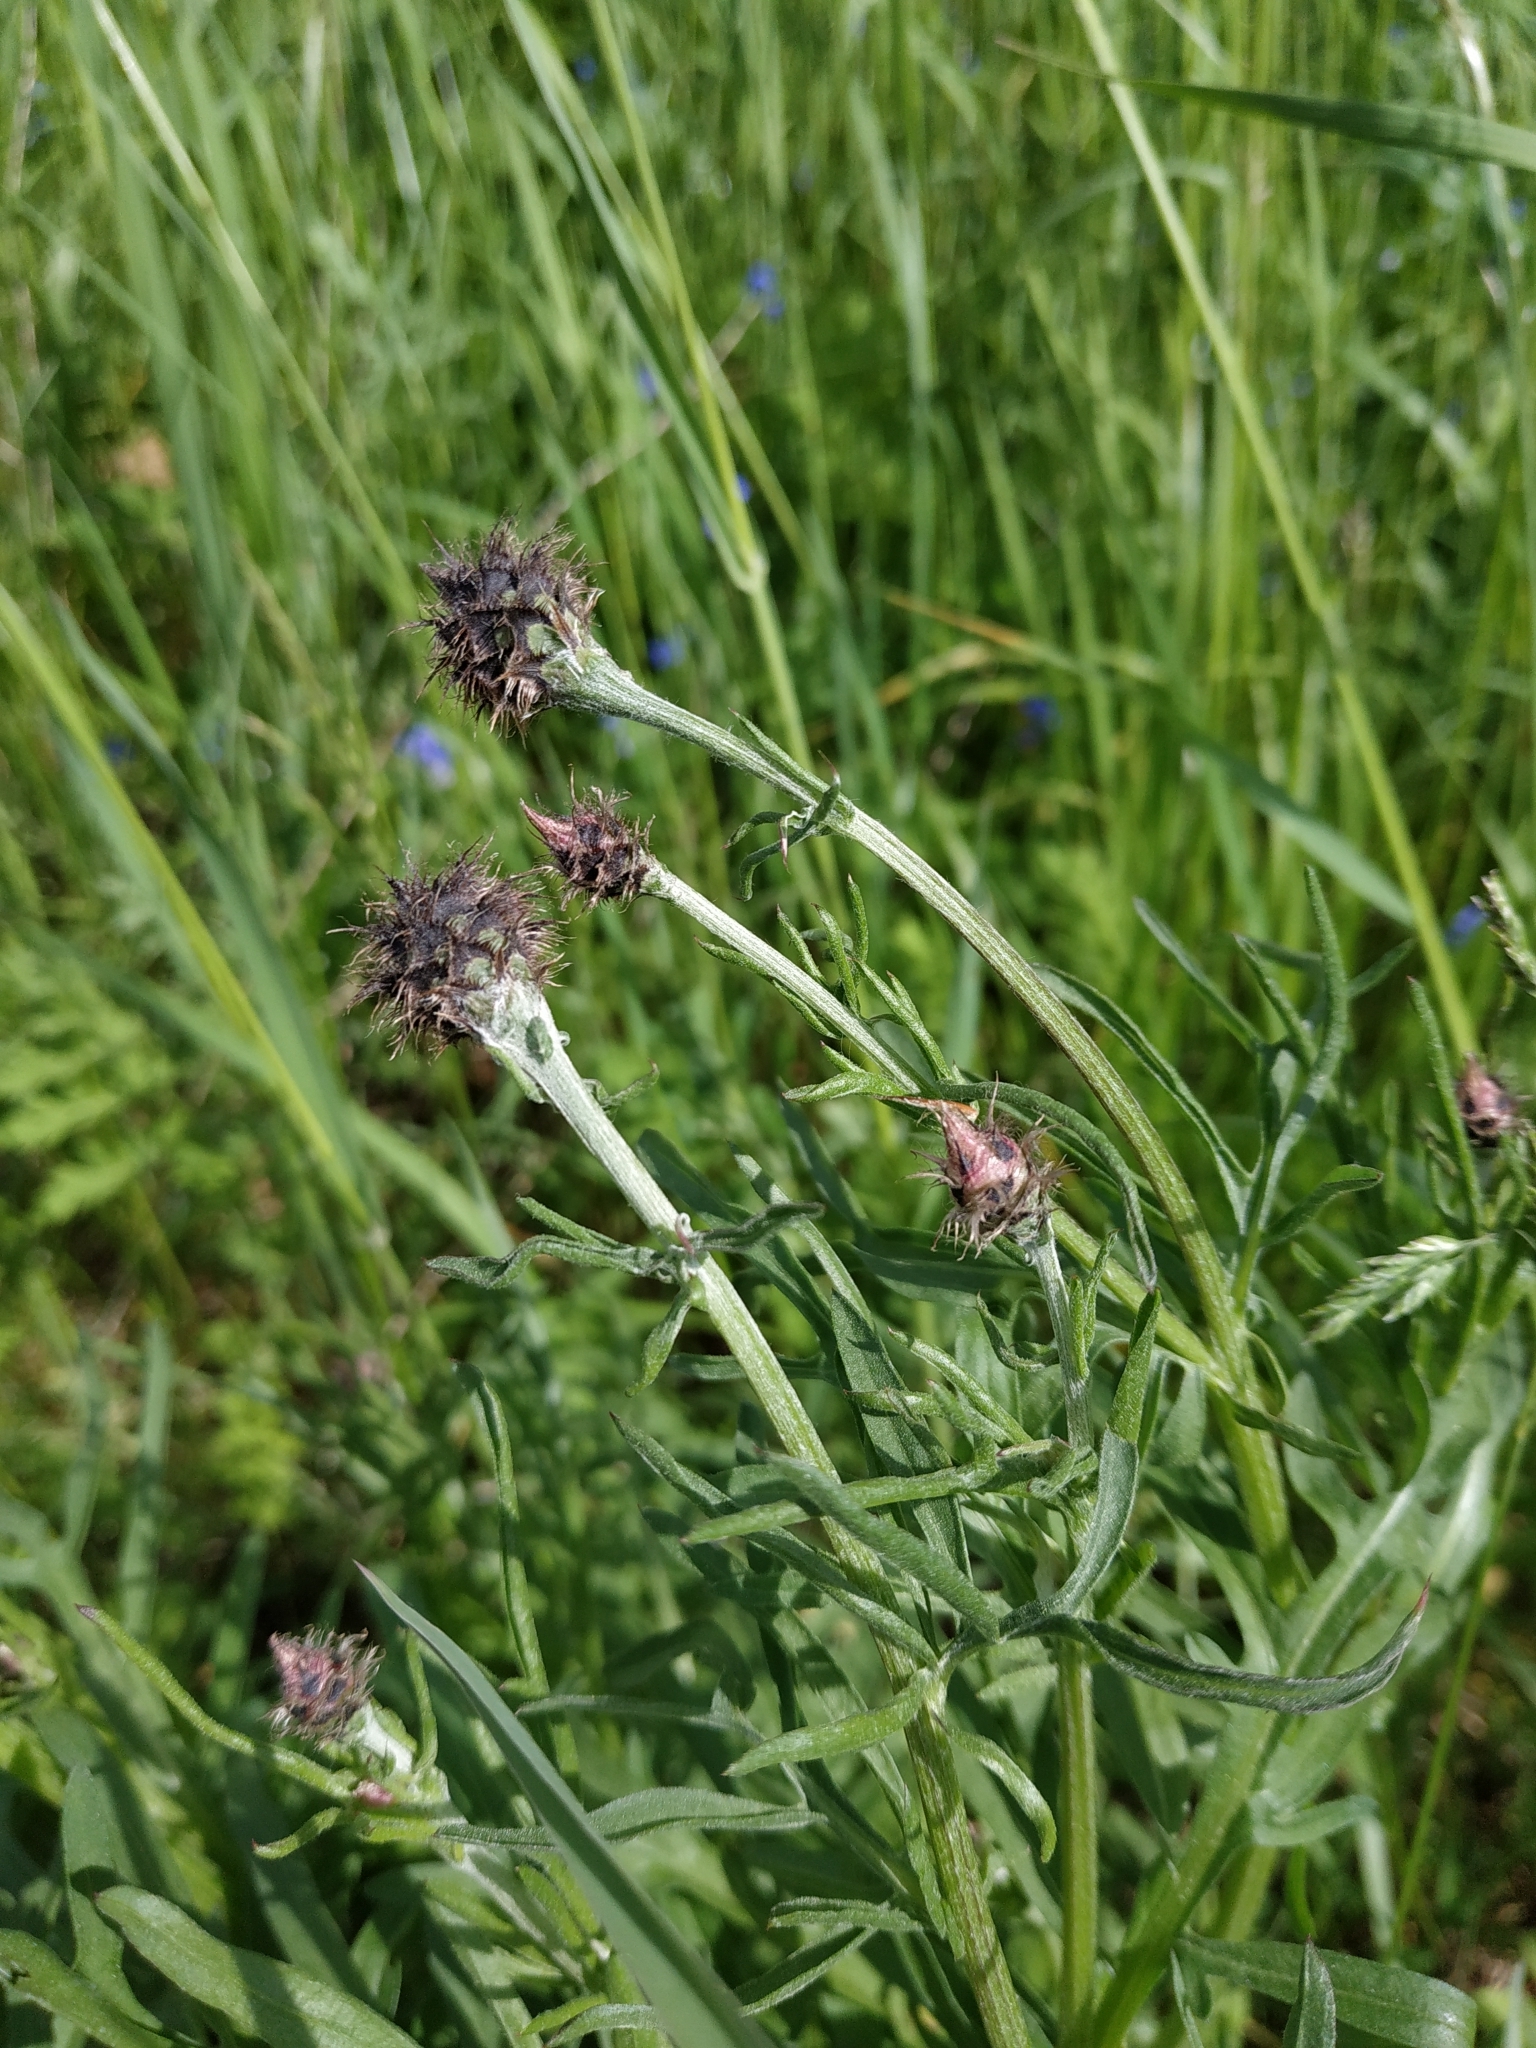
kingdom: Plantae
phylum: Tracheophyta
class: Magnoliopsida
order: Asterales
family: Asteraceae
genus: Centaurea
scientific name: Centaurea scabiosa
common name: Greater knapweed
